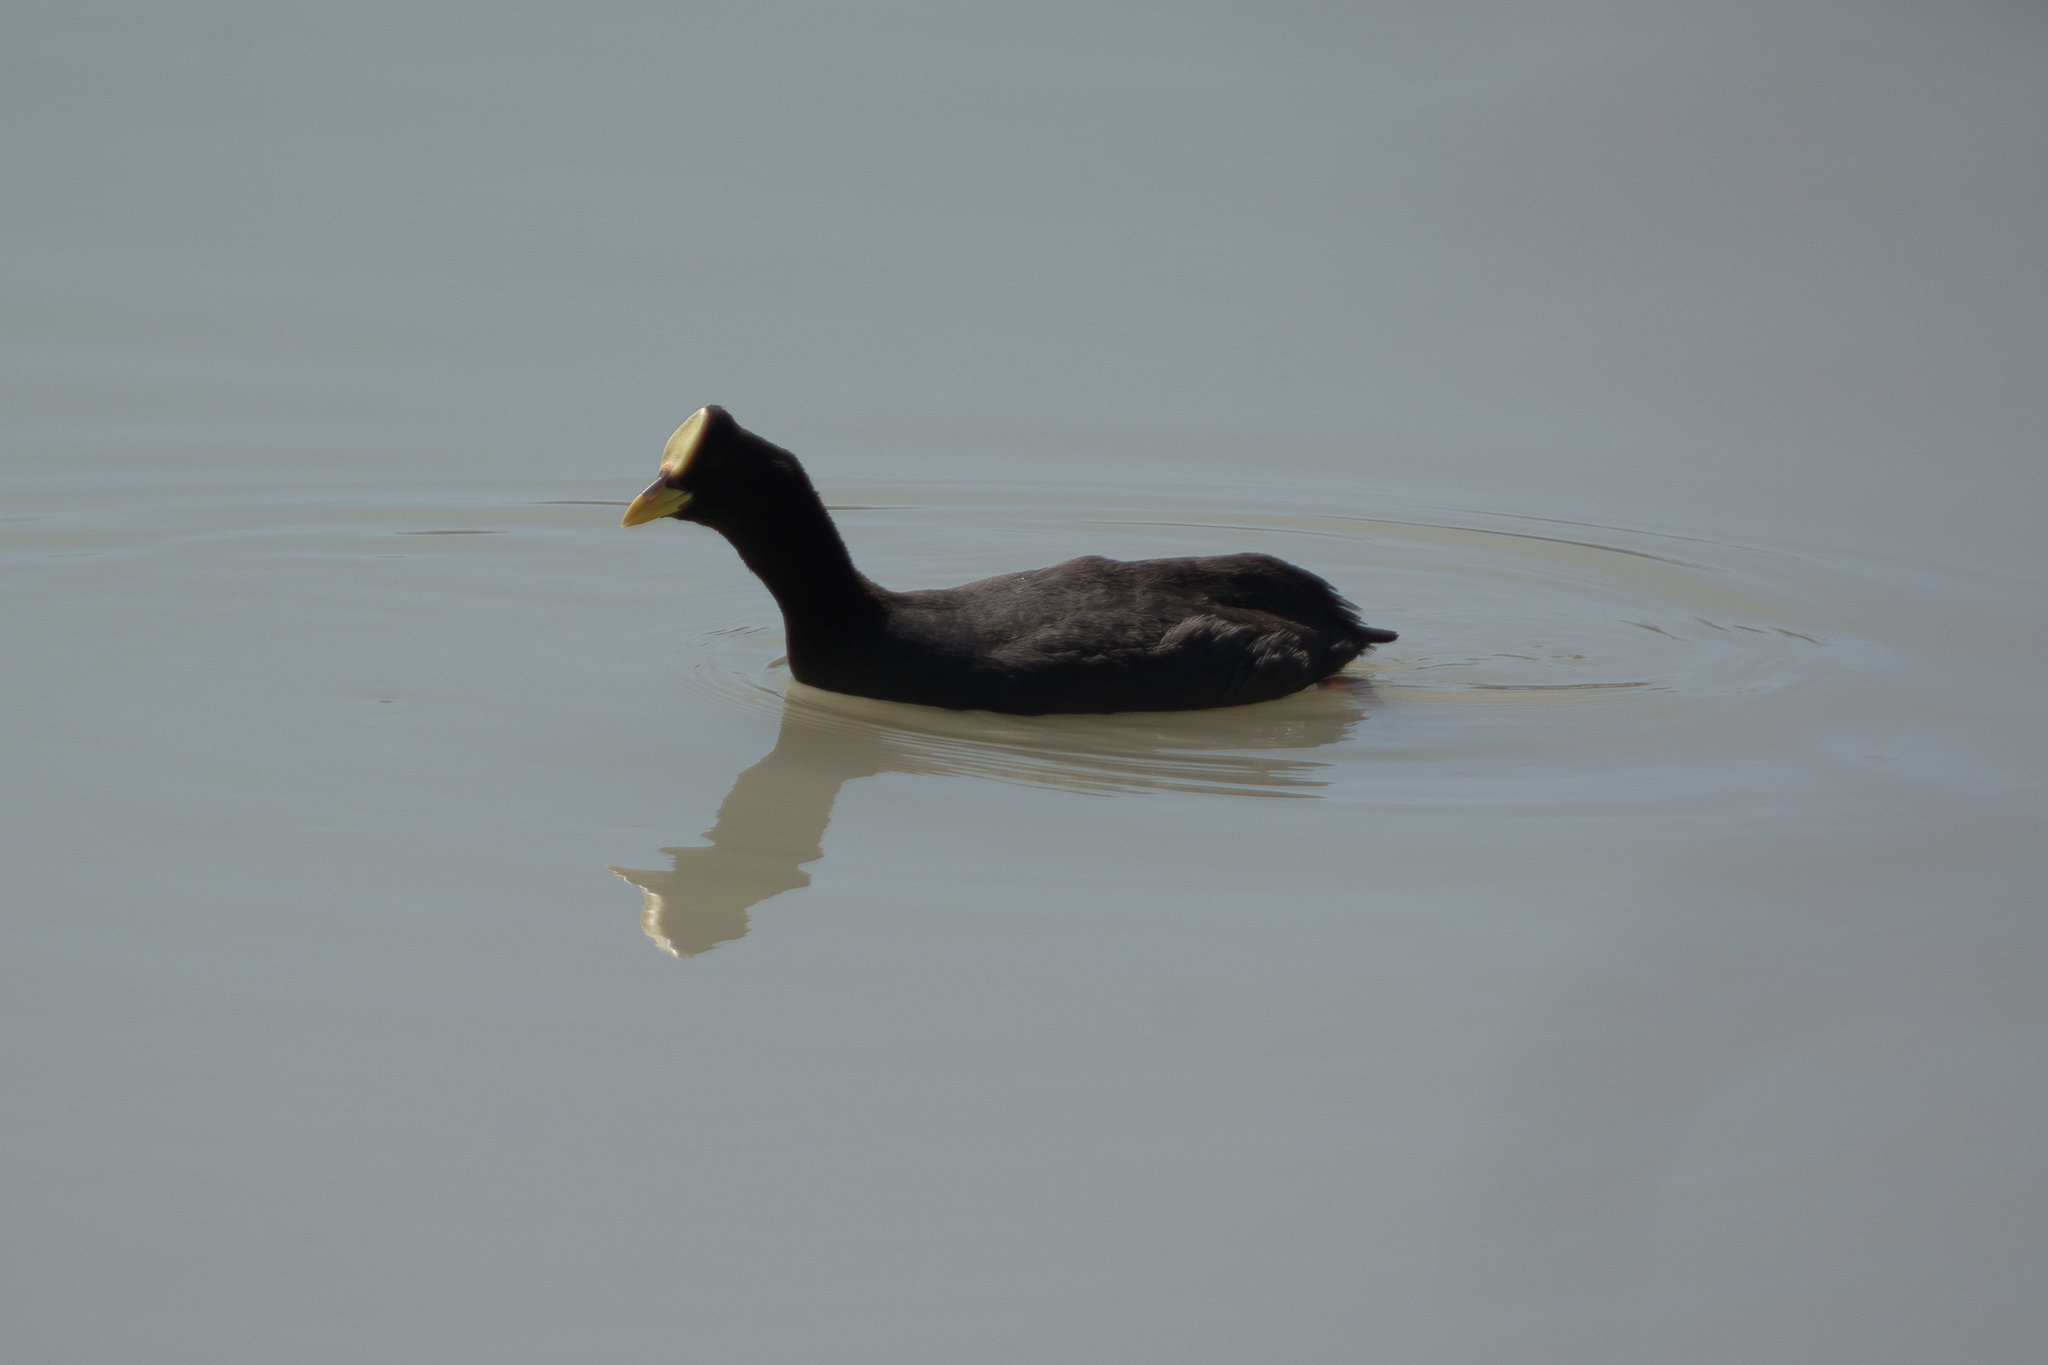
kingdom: Animalia
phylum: Chordata
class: Aves
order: Gruiformes
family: Rallidae
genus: Fulica
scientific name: Fulica armillata
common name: Red-gartered coot
